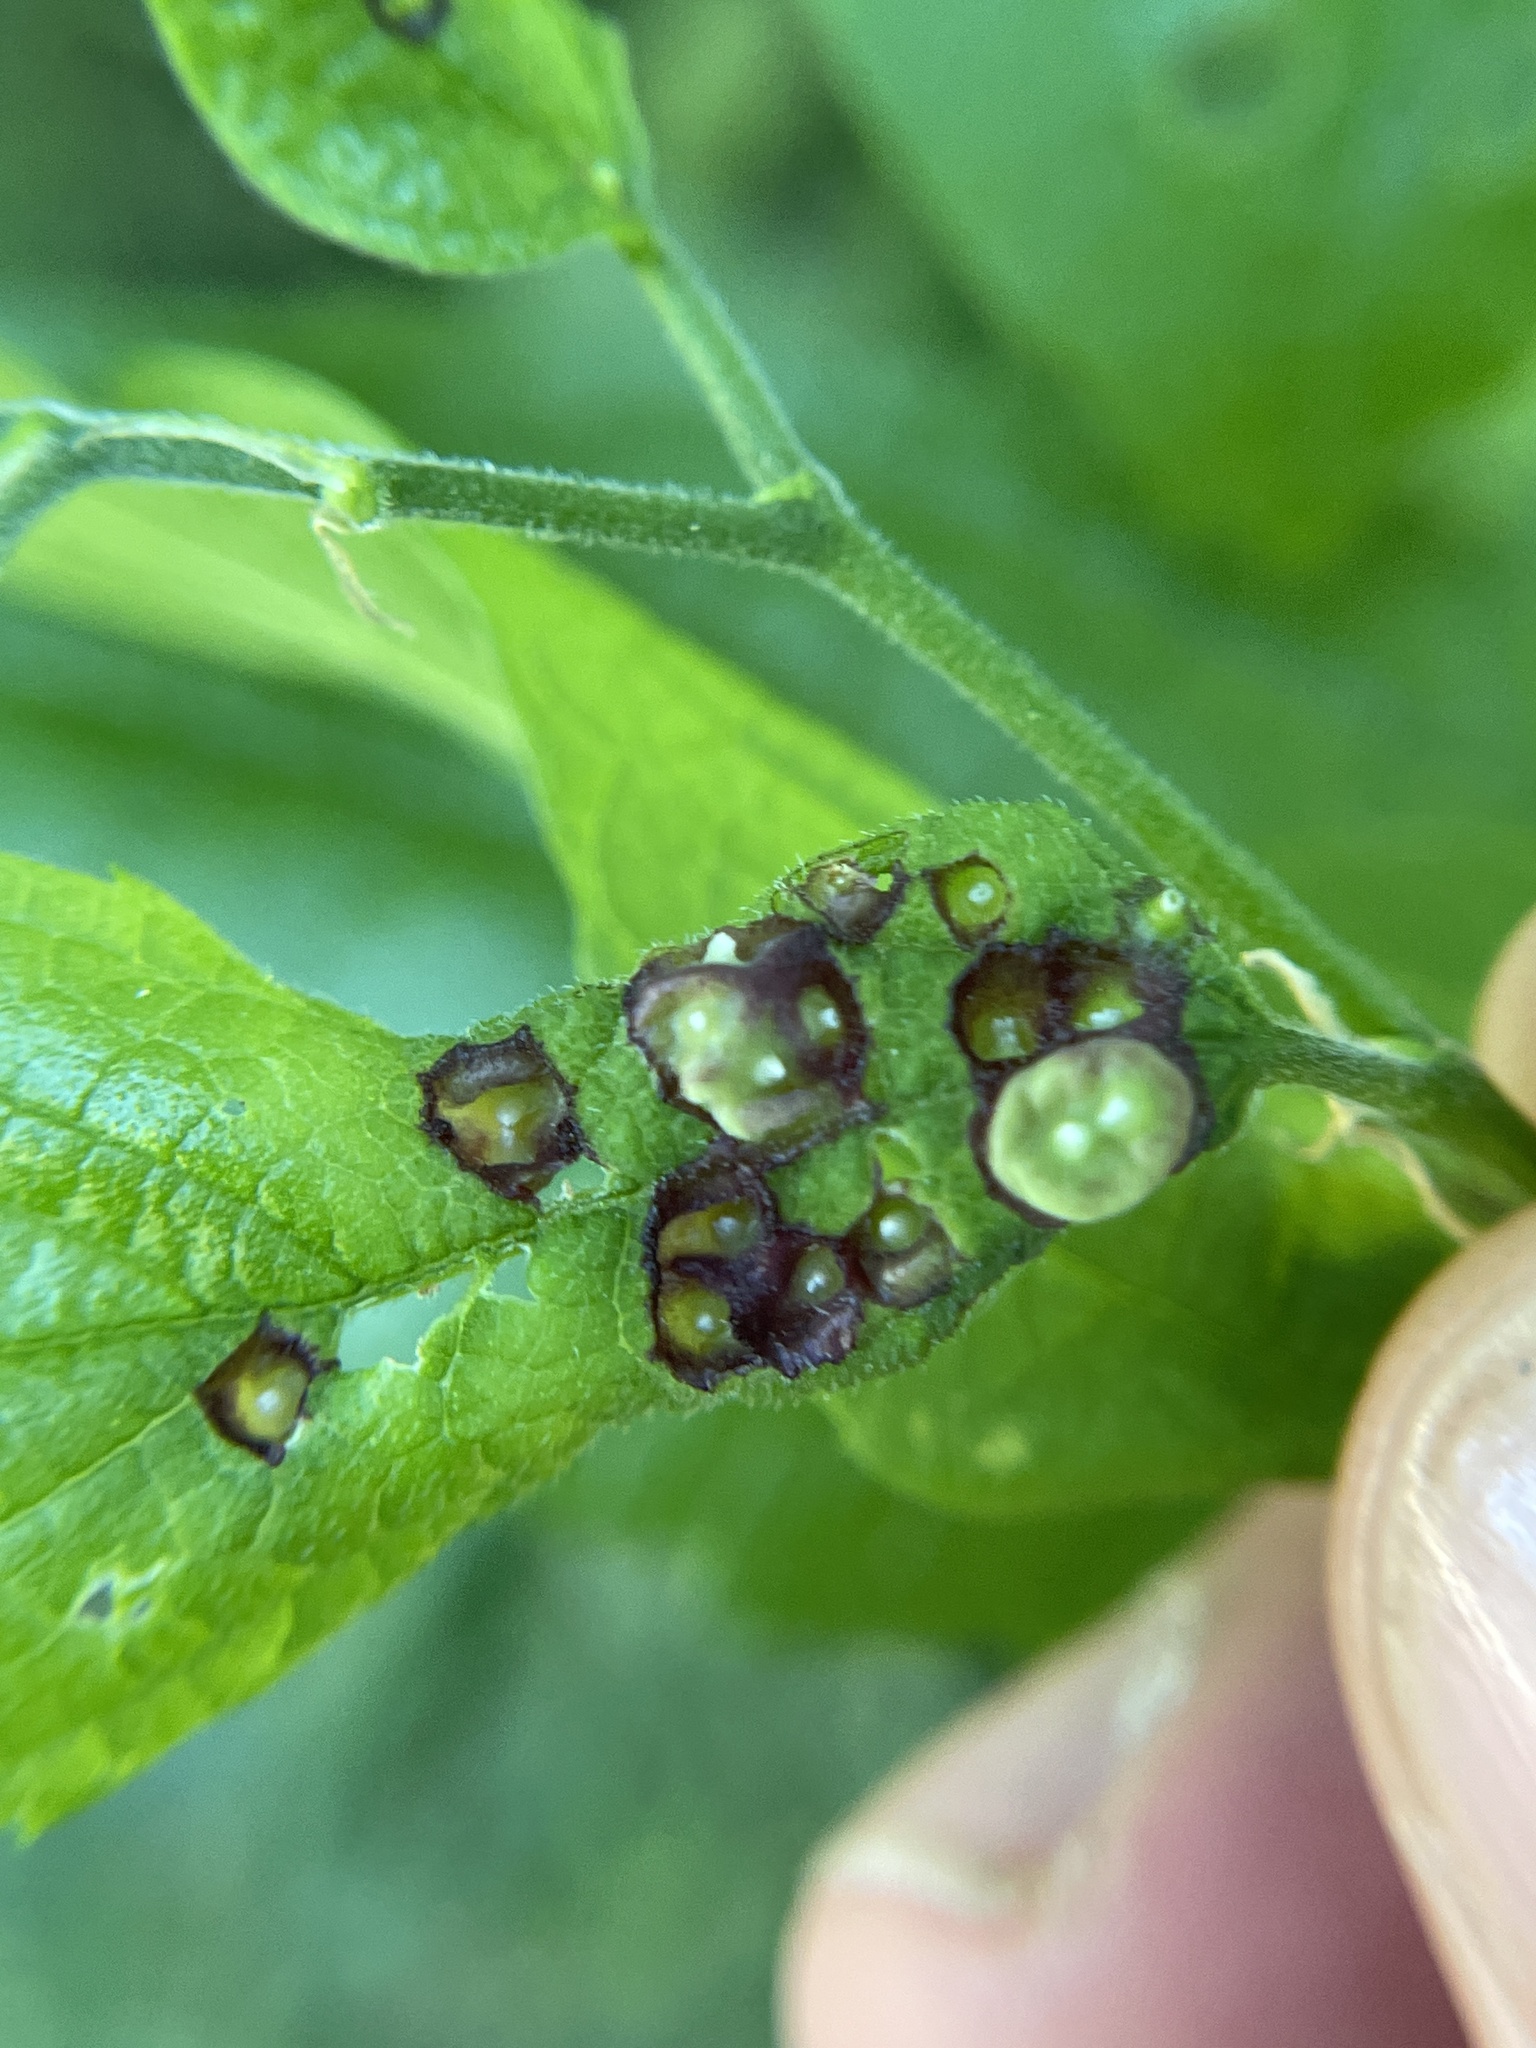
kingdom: Animalia
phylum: Arthropoda
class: Insecta
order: Hemiptera
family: Aphalaridae
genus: Pachypsylla
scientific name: Pachypsylla celtidismamma
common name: Hackberry nipplegall psyllid
